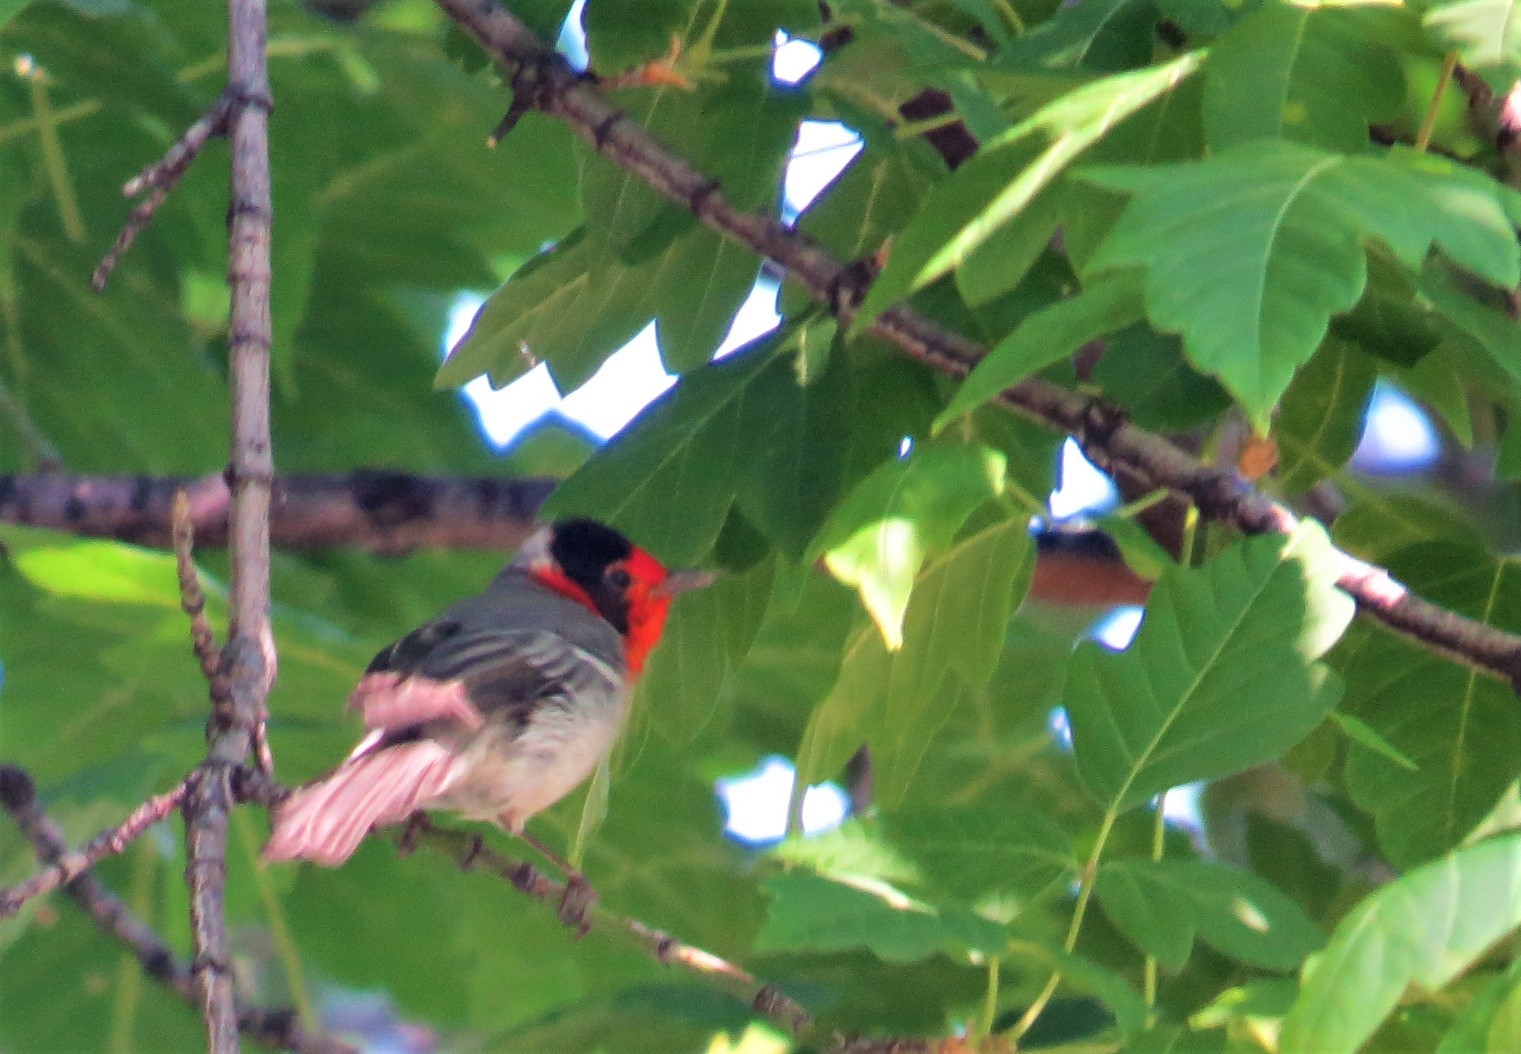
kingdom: Animalia
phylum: Chordata
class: Aves
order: Passeriformes
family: Parulidae
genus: Cardellina
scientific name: Cardellina rubrifrons
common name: Red-faced warbler
